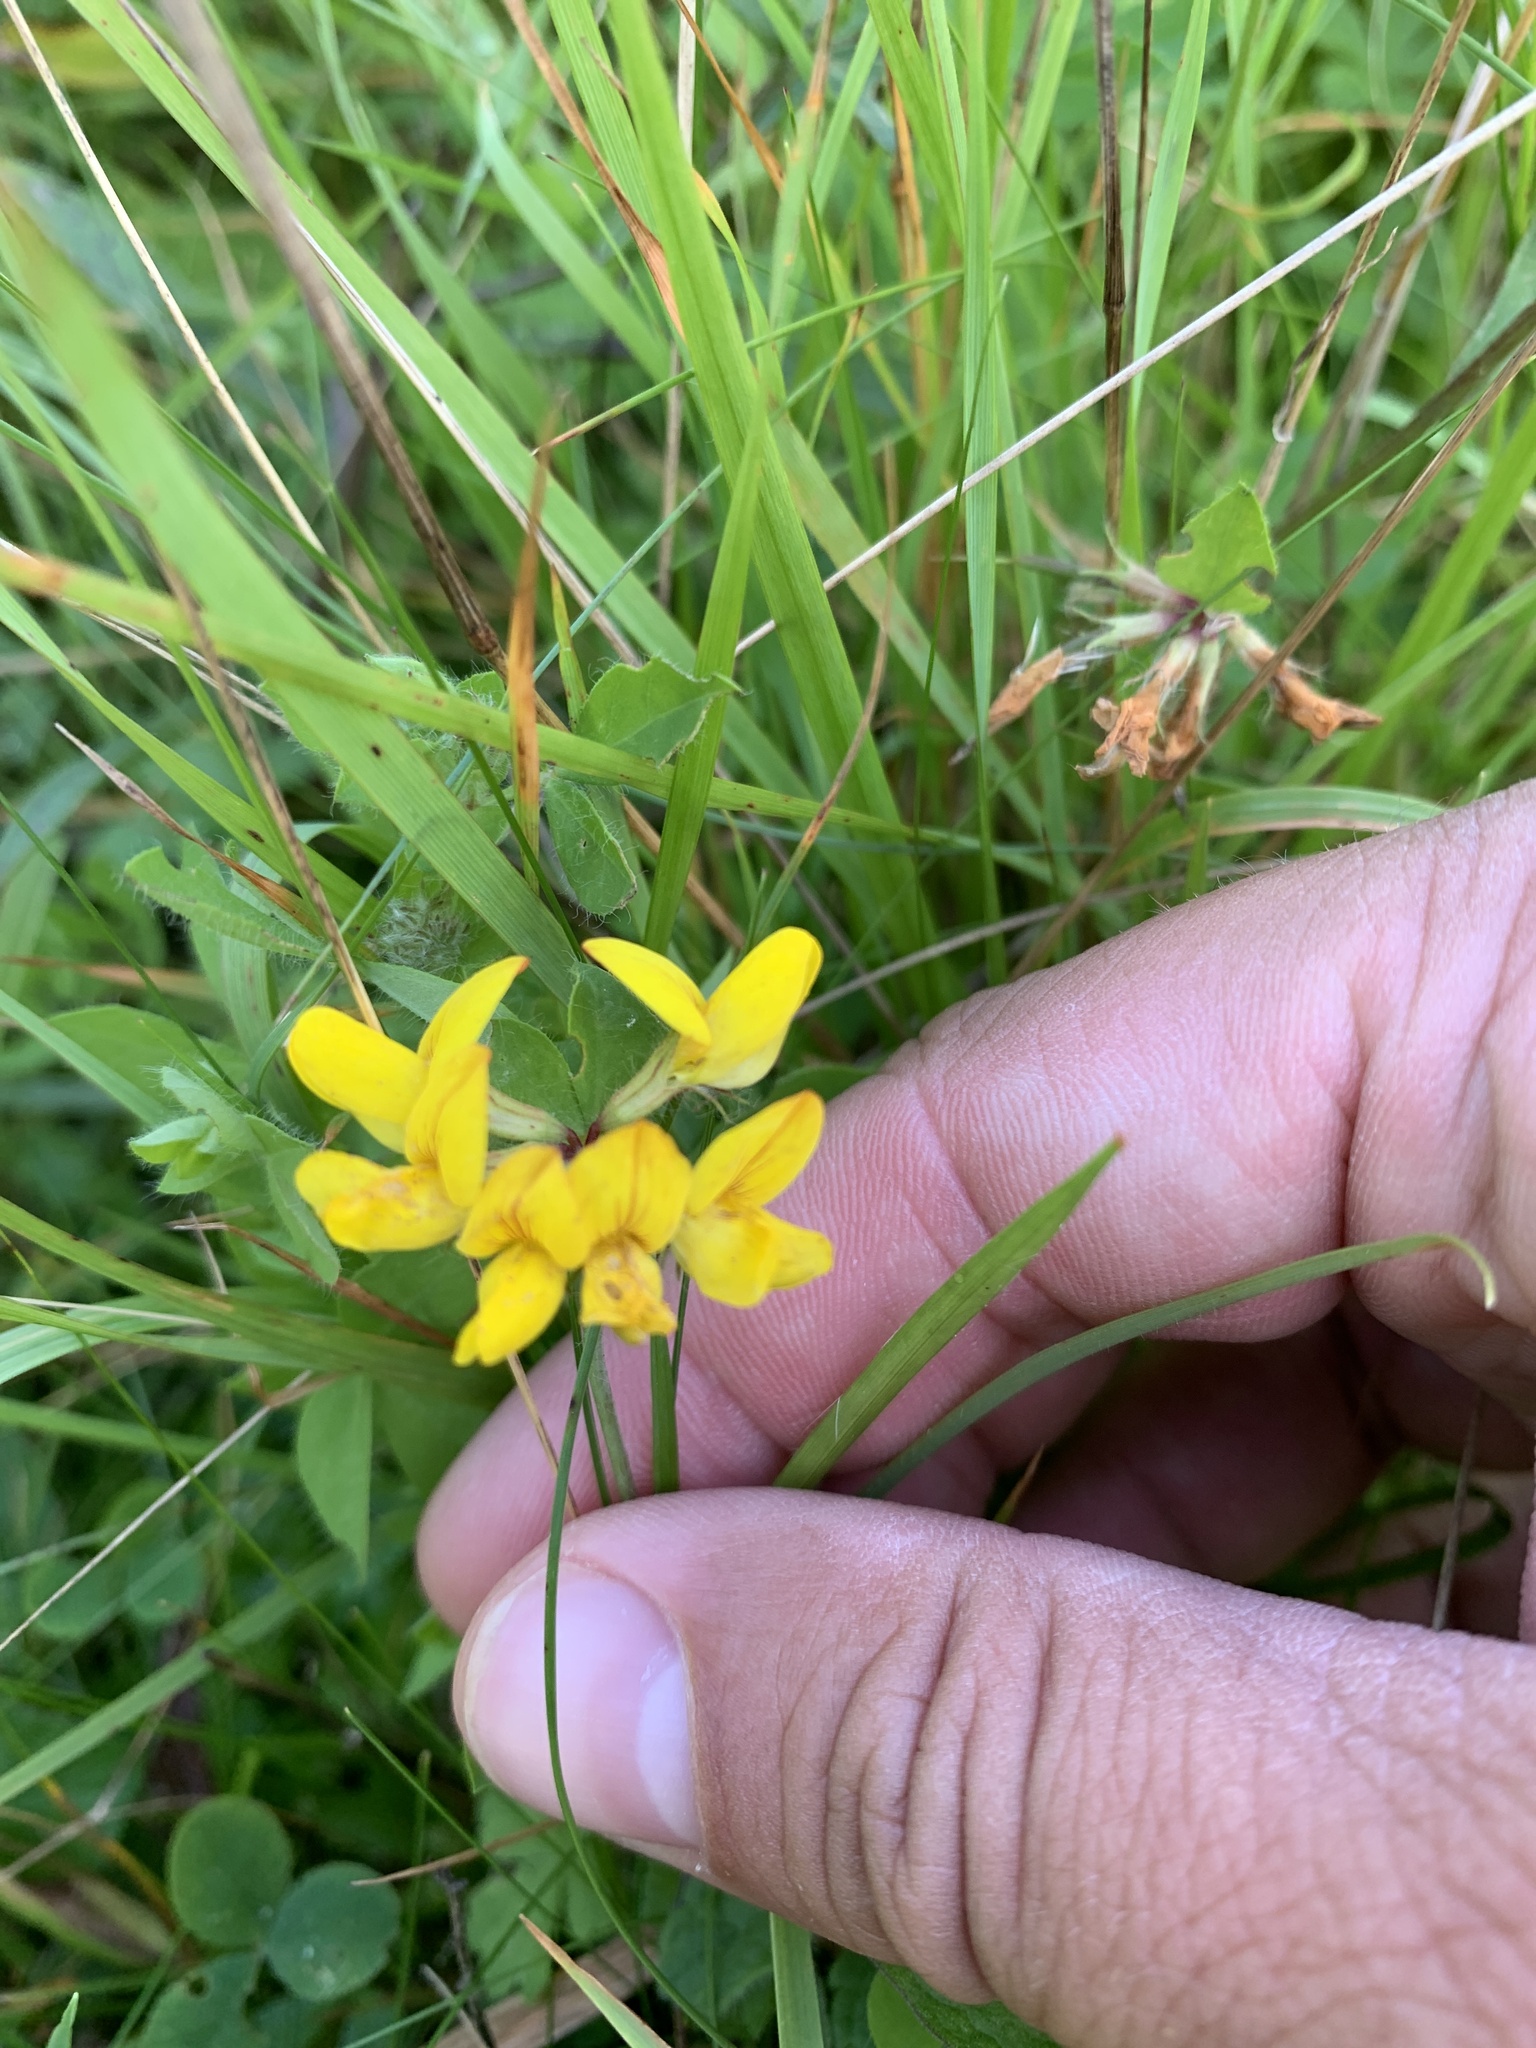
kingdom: Plantae
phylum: Tracheophyta
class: Magnoliopsida
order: Fabales
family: Fabaceae
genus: Lotus
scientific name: Lotus corniculatus
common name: Common bird's-foot-trefoil
